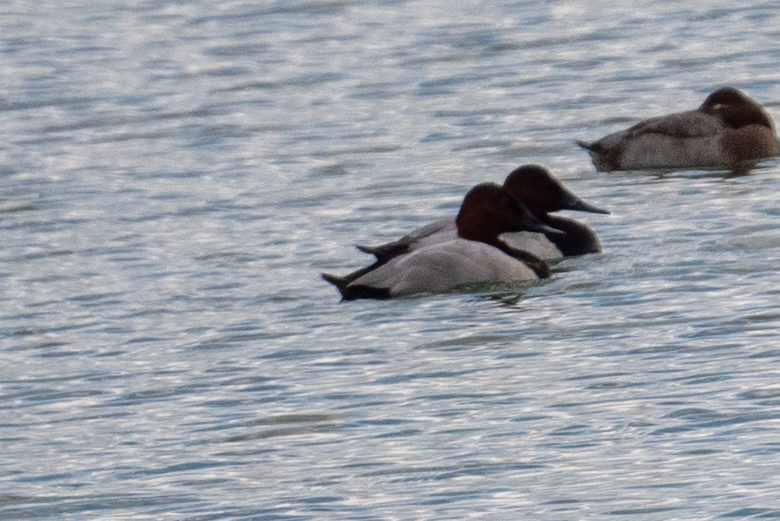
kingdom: Animalia
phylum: Chordata
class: Aves
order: Anseriformes
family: Anatidae
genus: Aythya
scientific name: Aythya valisineria
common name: Canvasback
